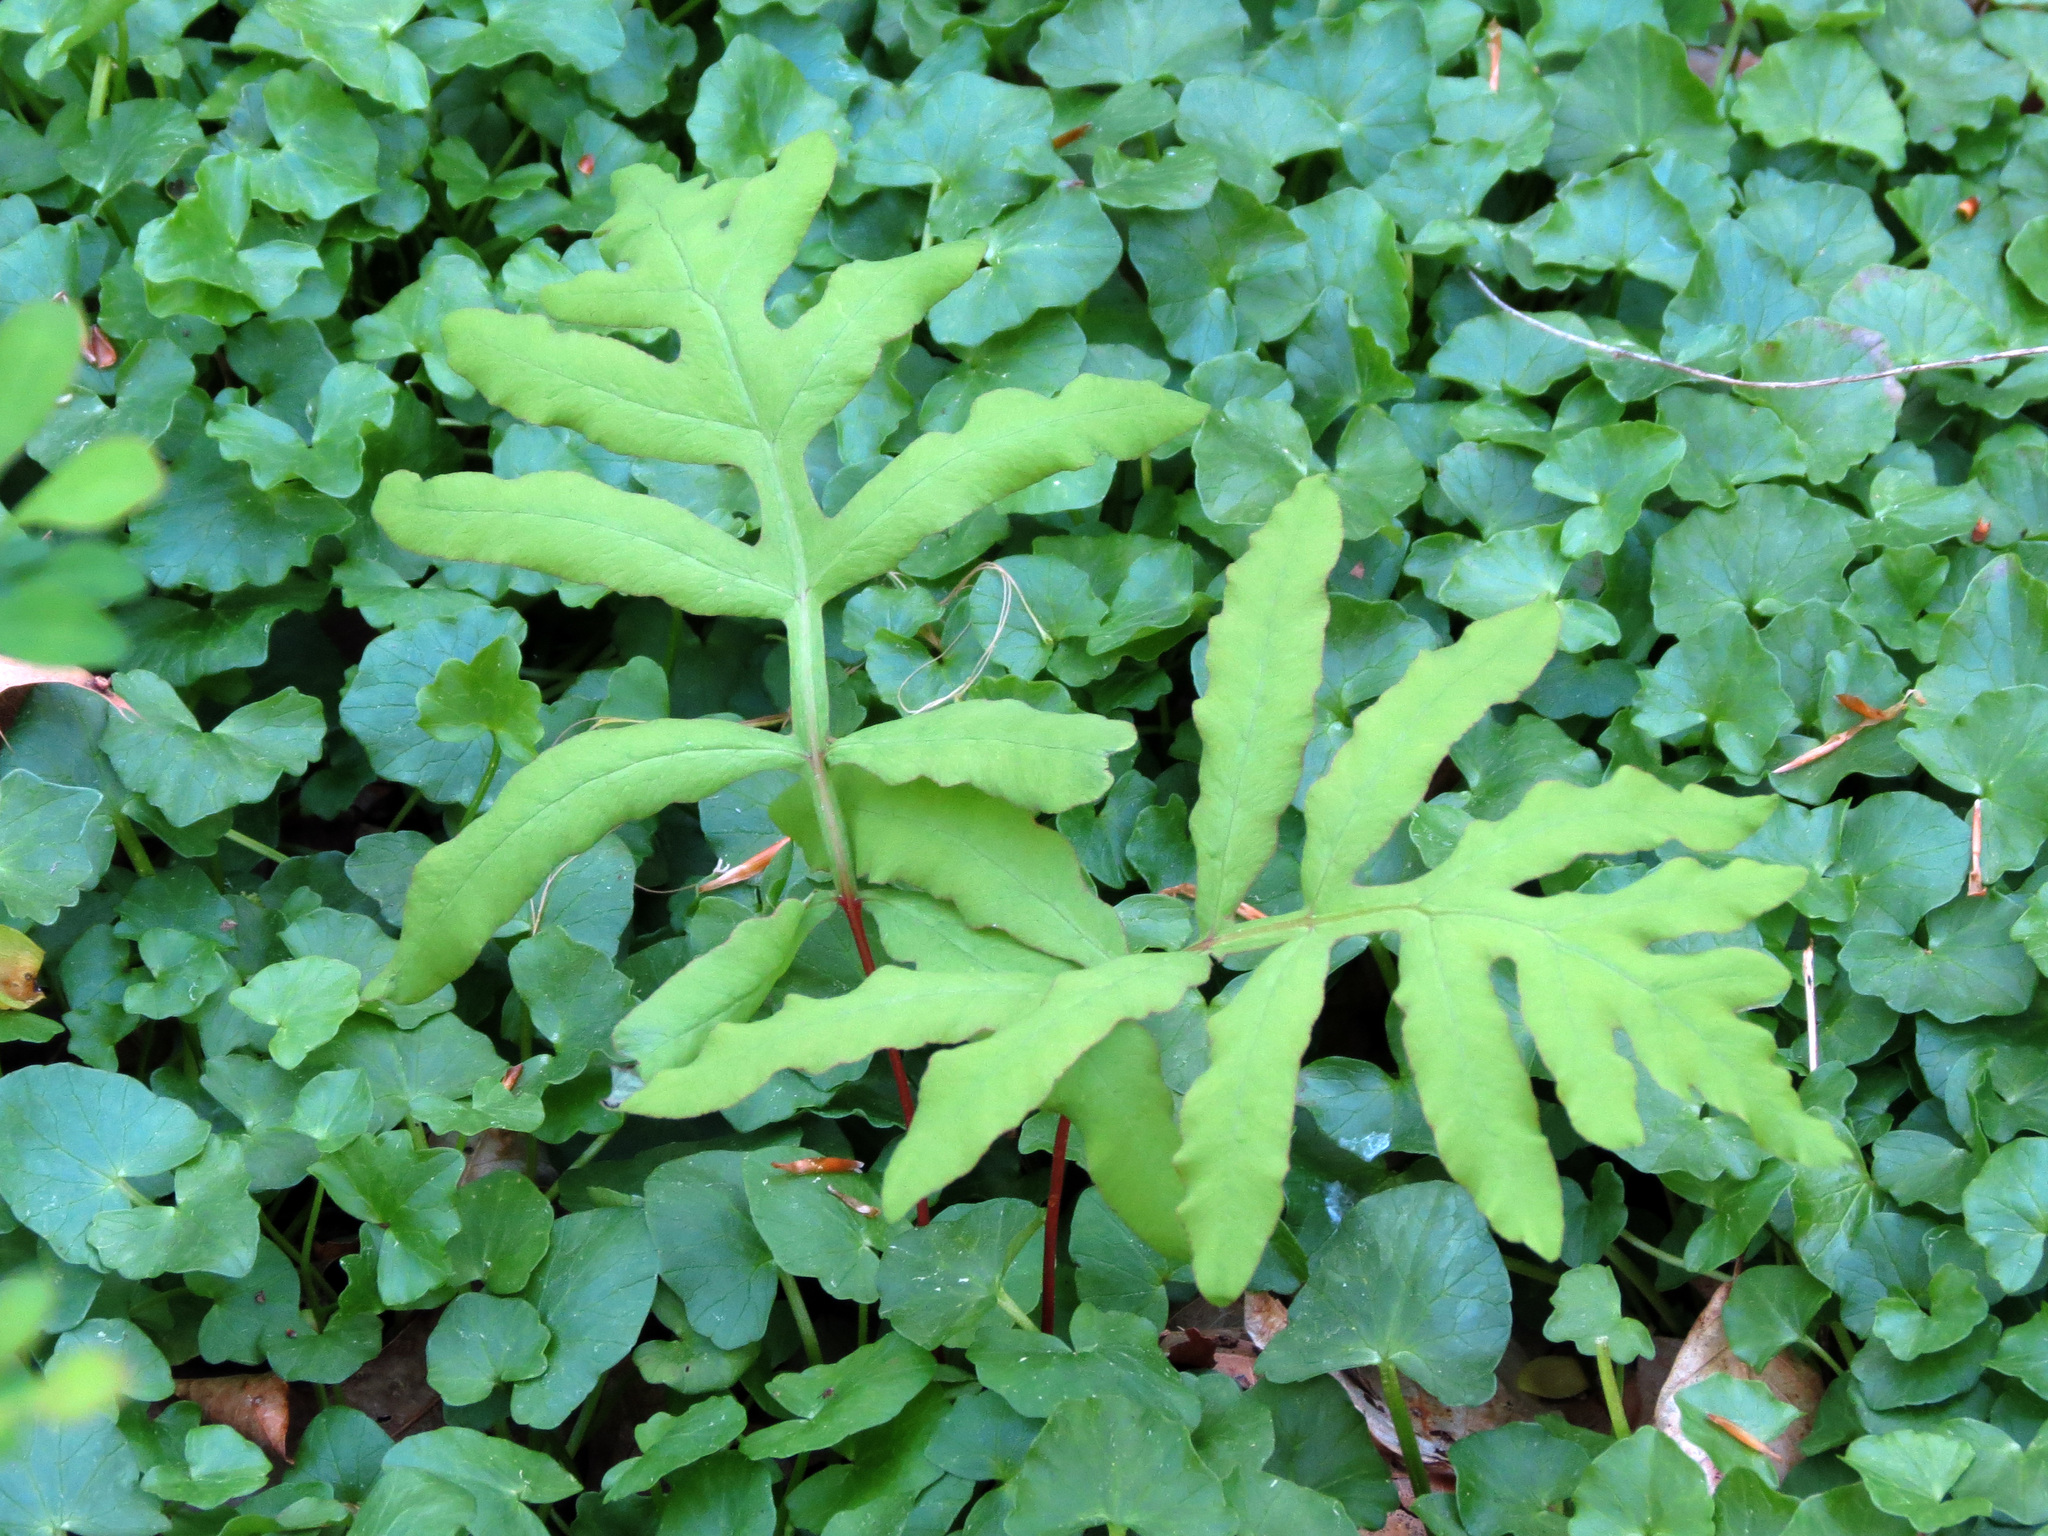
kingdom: Plantae
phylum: Tracheophyta
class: Polypodiopsida
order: Polypodiales
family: Onocleaceae
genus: Onoclea
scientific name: Onoclea sensibilis
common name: Sensitive fern
